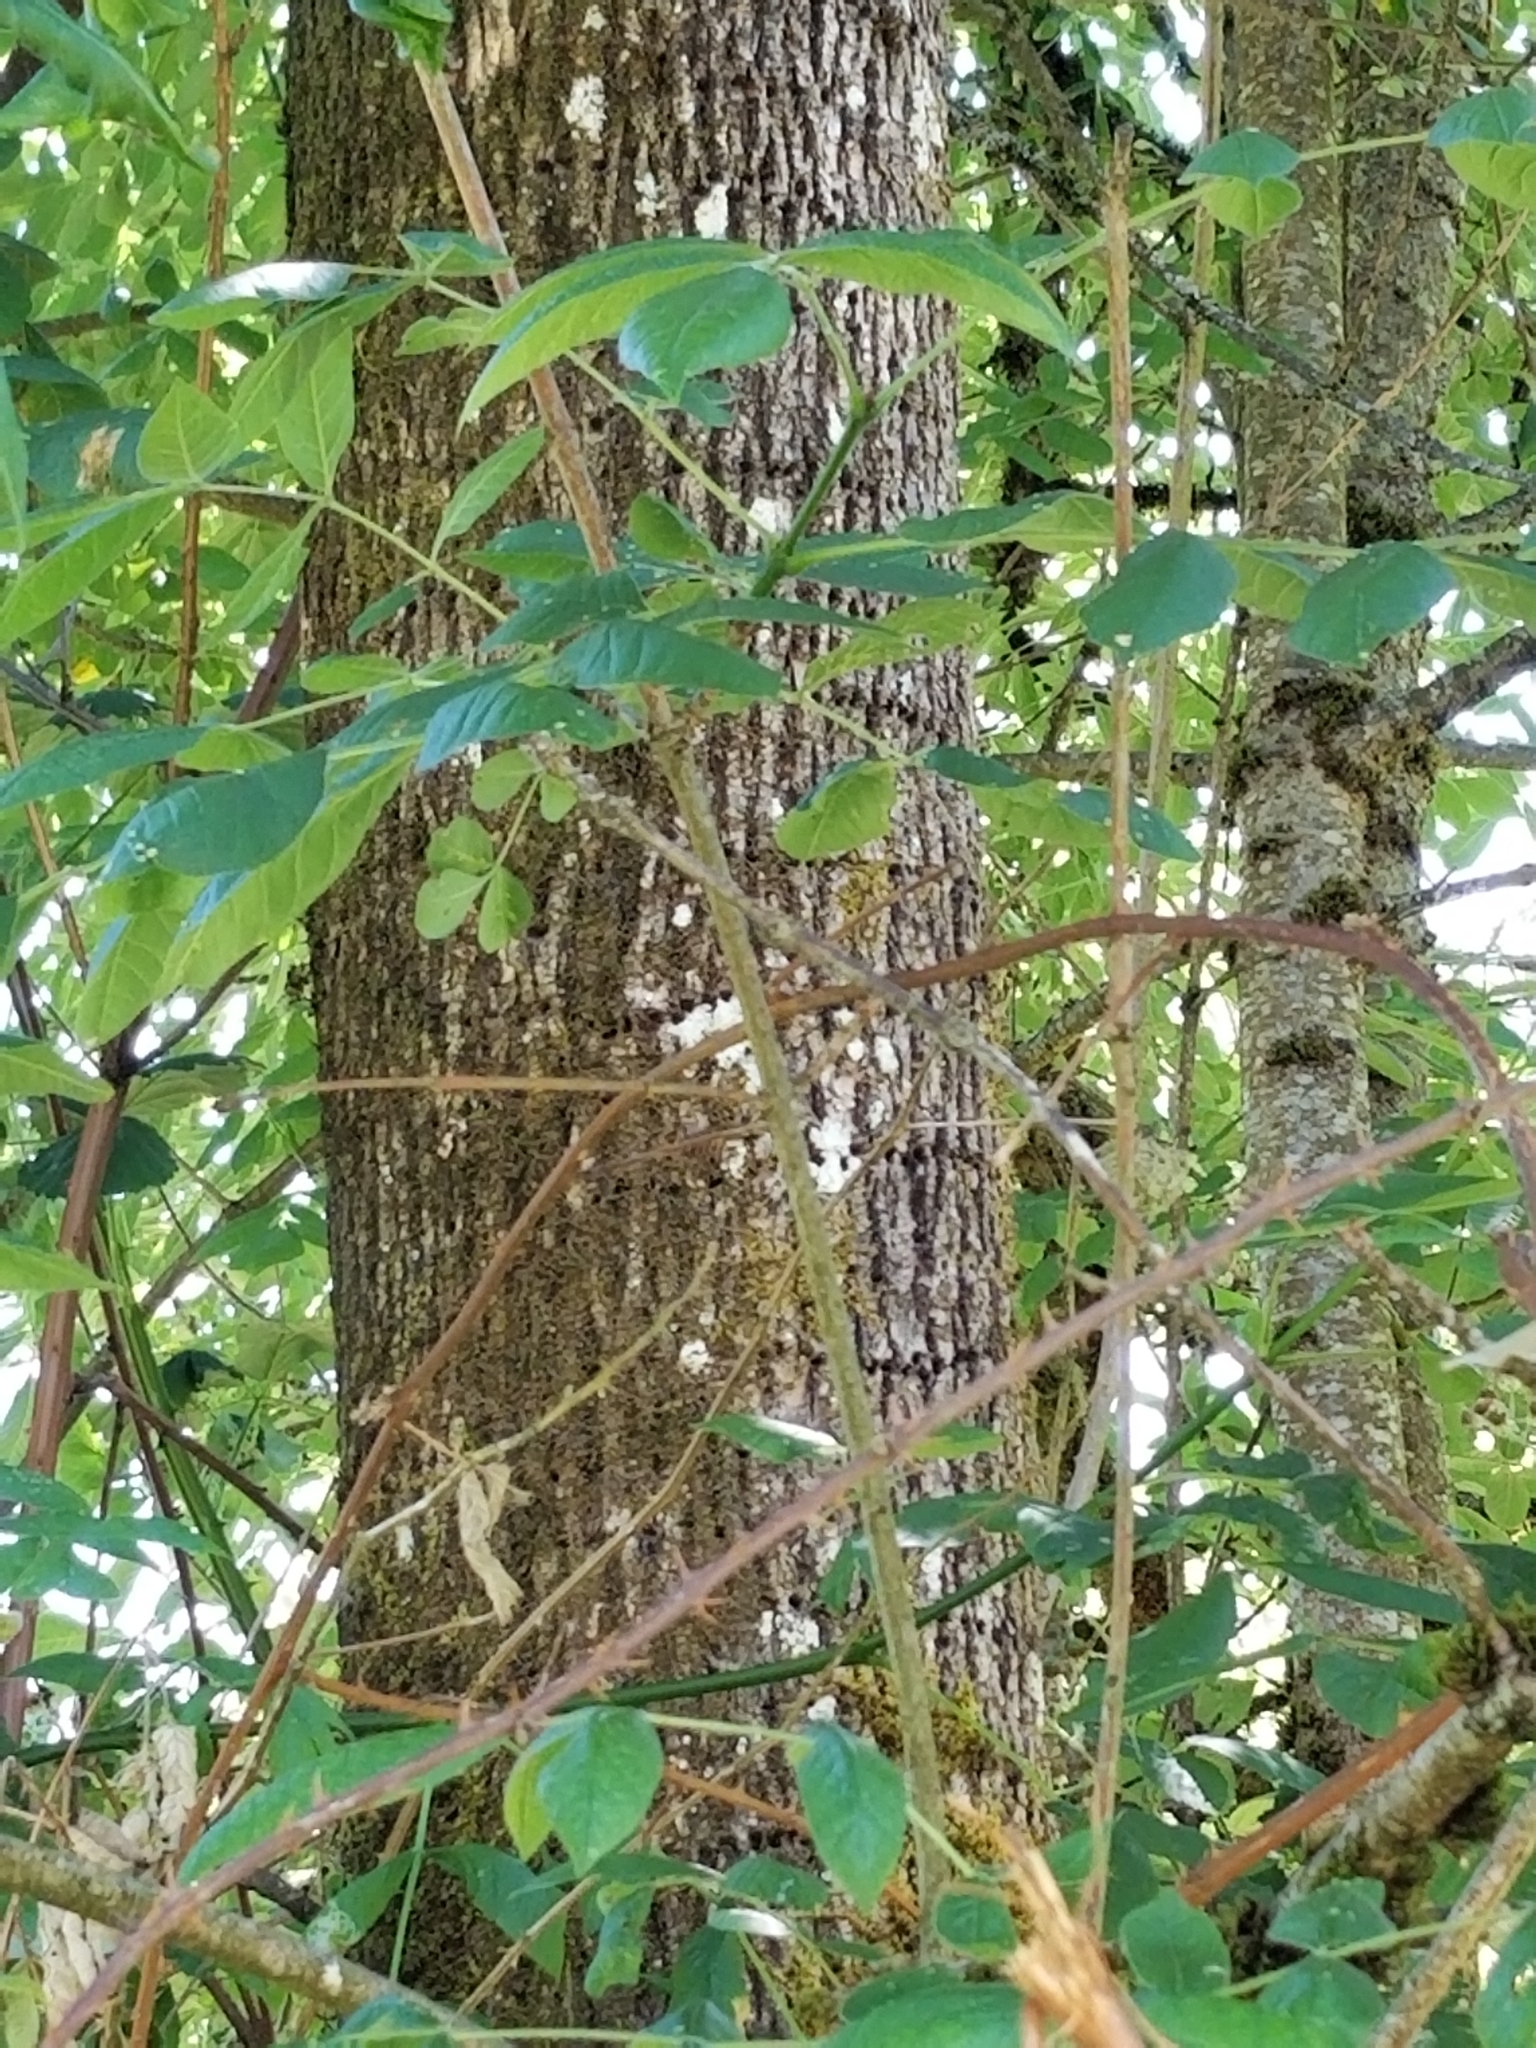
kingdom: Plantae
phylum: Tracheophyta
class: Magnoliopsida
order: Lamiales
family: Oleaceae
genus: Fraxinus
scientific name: Fraxinus latifolia
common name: Oregon ash
